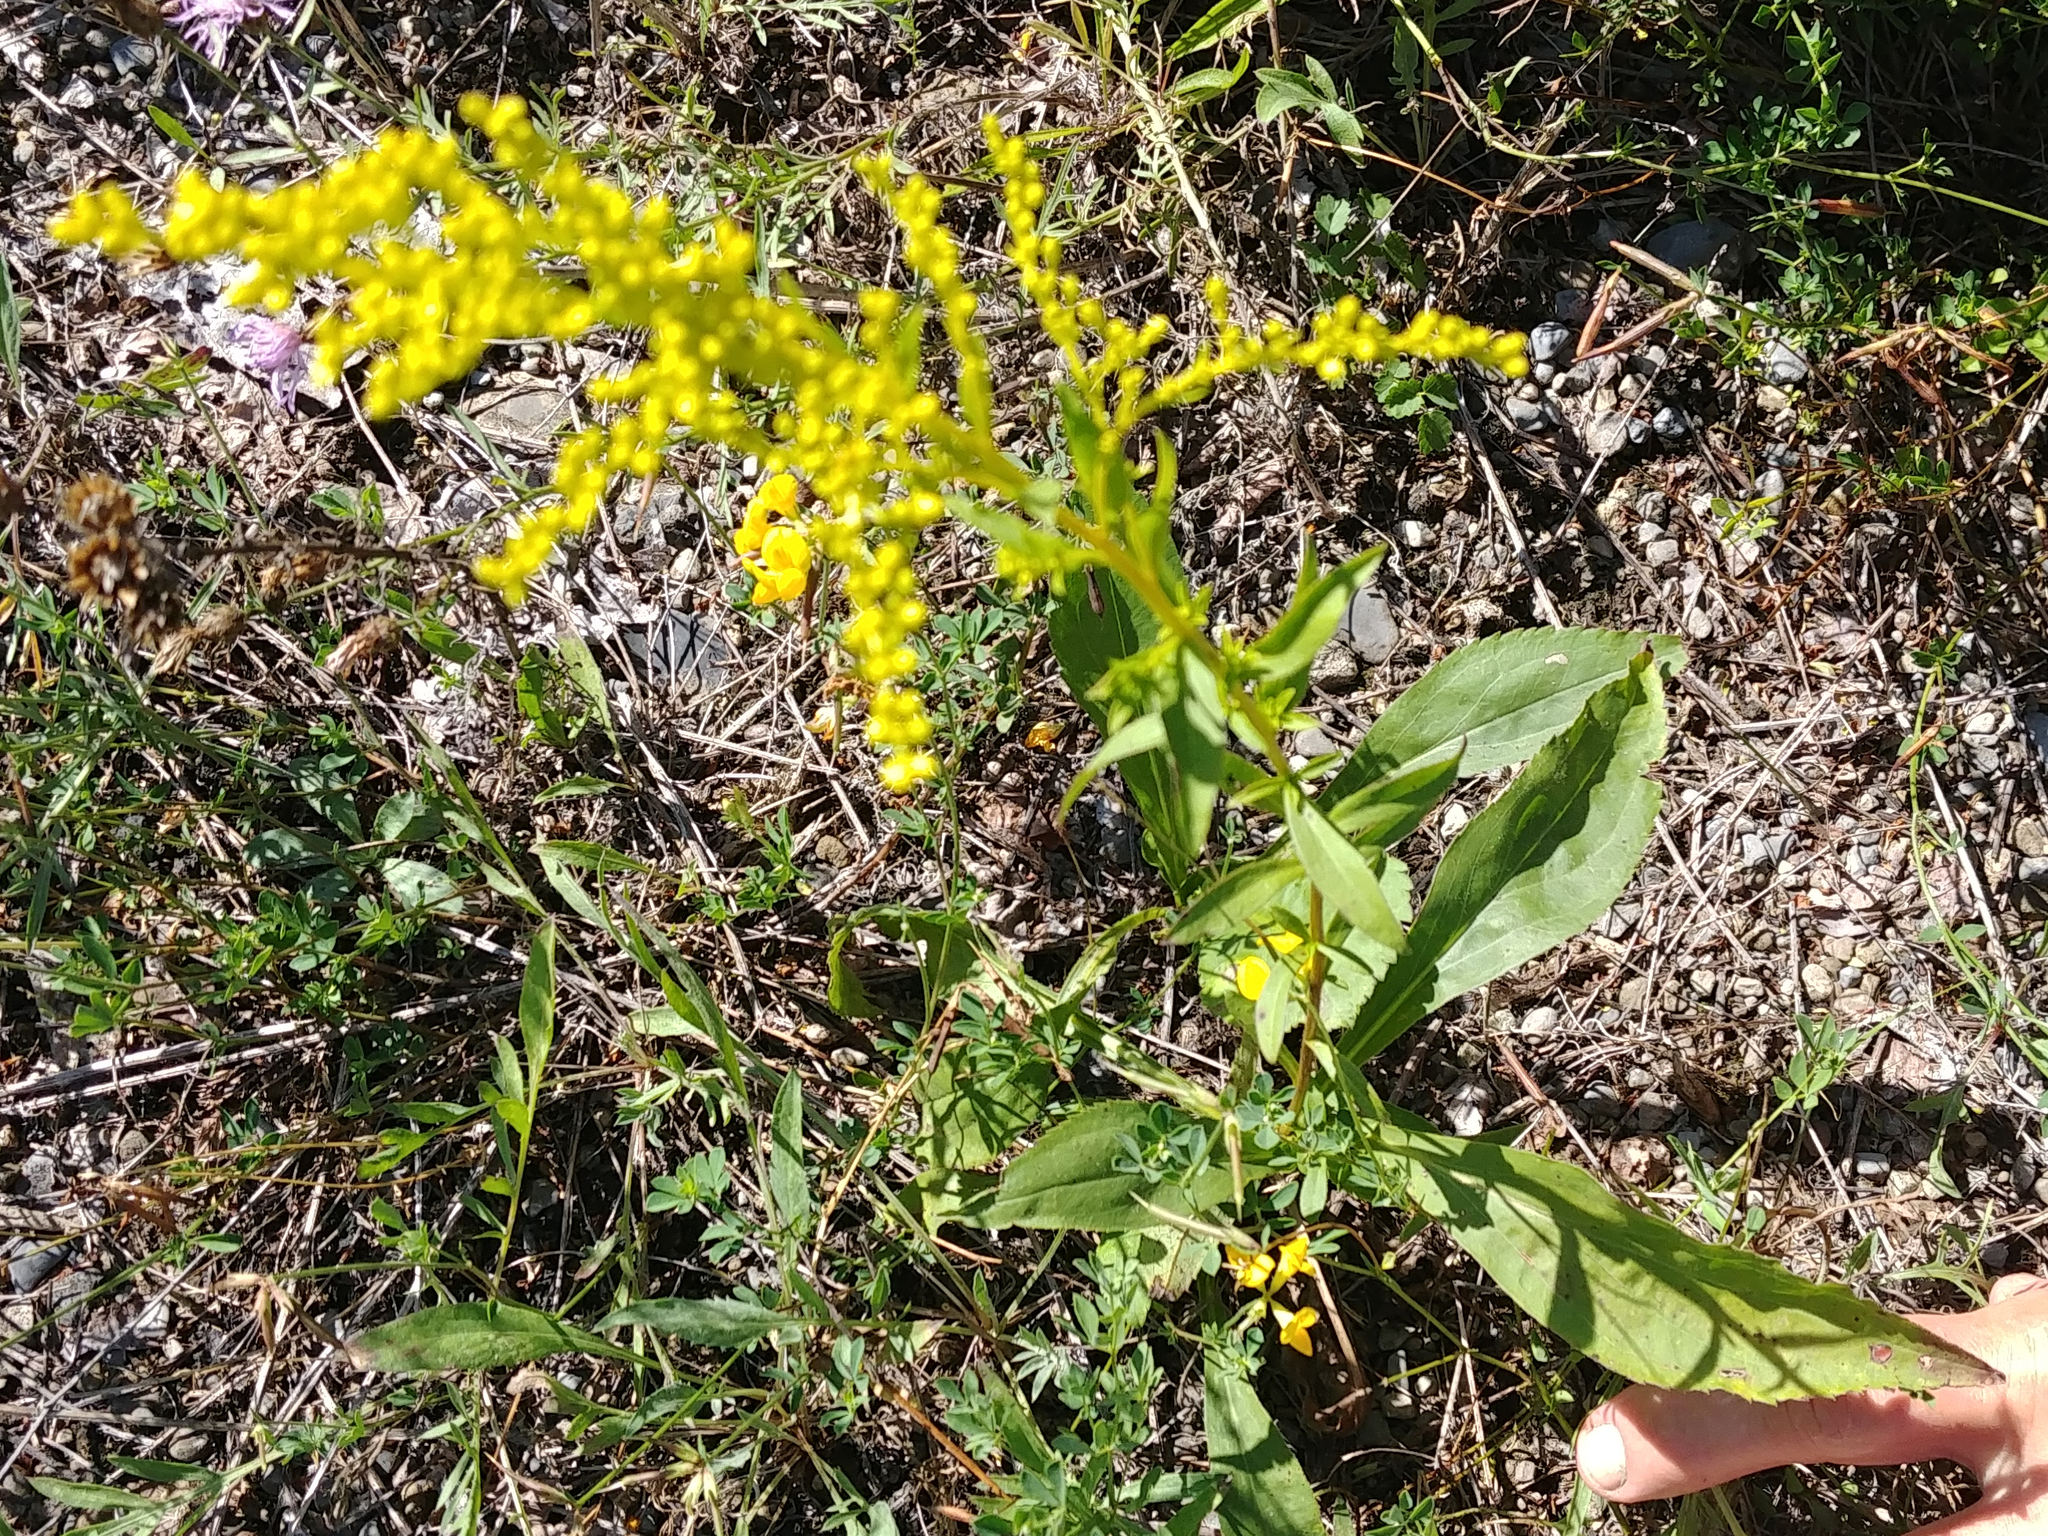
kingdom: Plantae
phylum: Tracheophyta
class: Magnoliopsida
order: Asterales
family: Asteraceae
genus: Solidago
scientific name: Solidago juncea
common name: Early goldenrod
